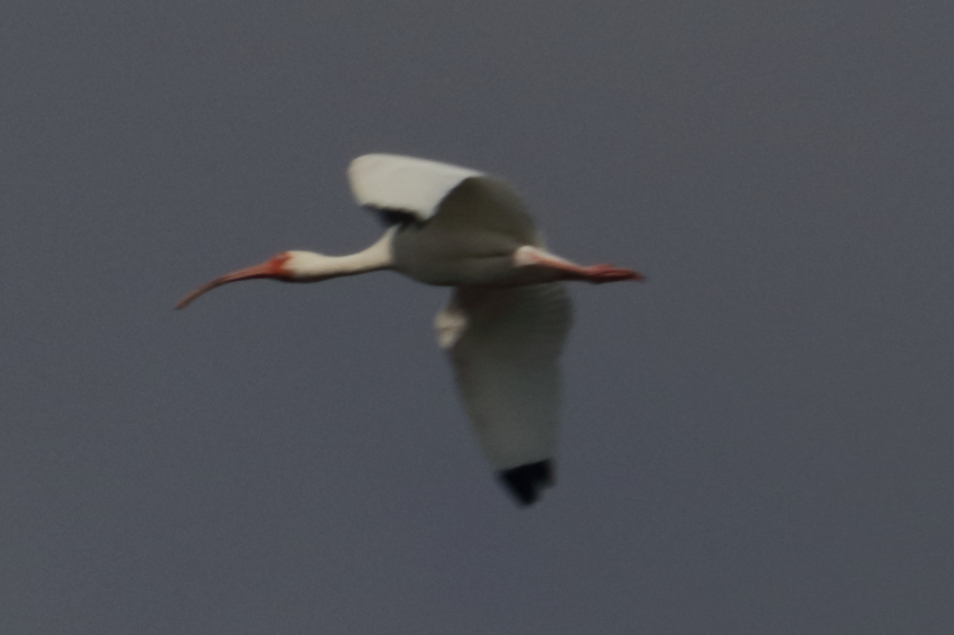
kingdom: Animalia
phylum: Chordata
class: Aves
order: Pelecaniformes
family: Threskiornithidae
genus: Eudocimus
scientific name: Eudocimus albus
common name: White ibis
